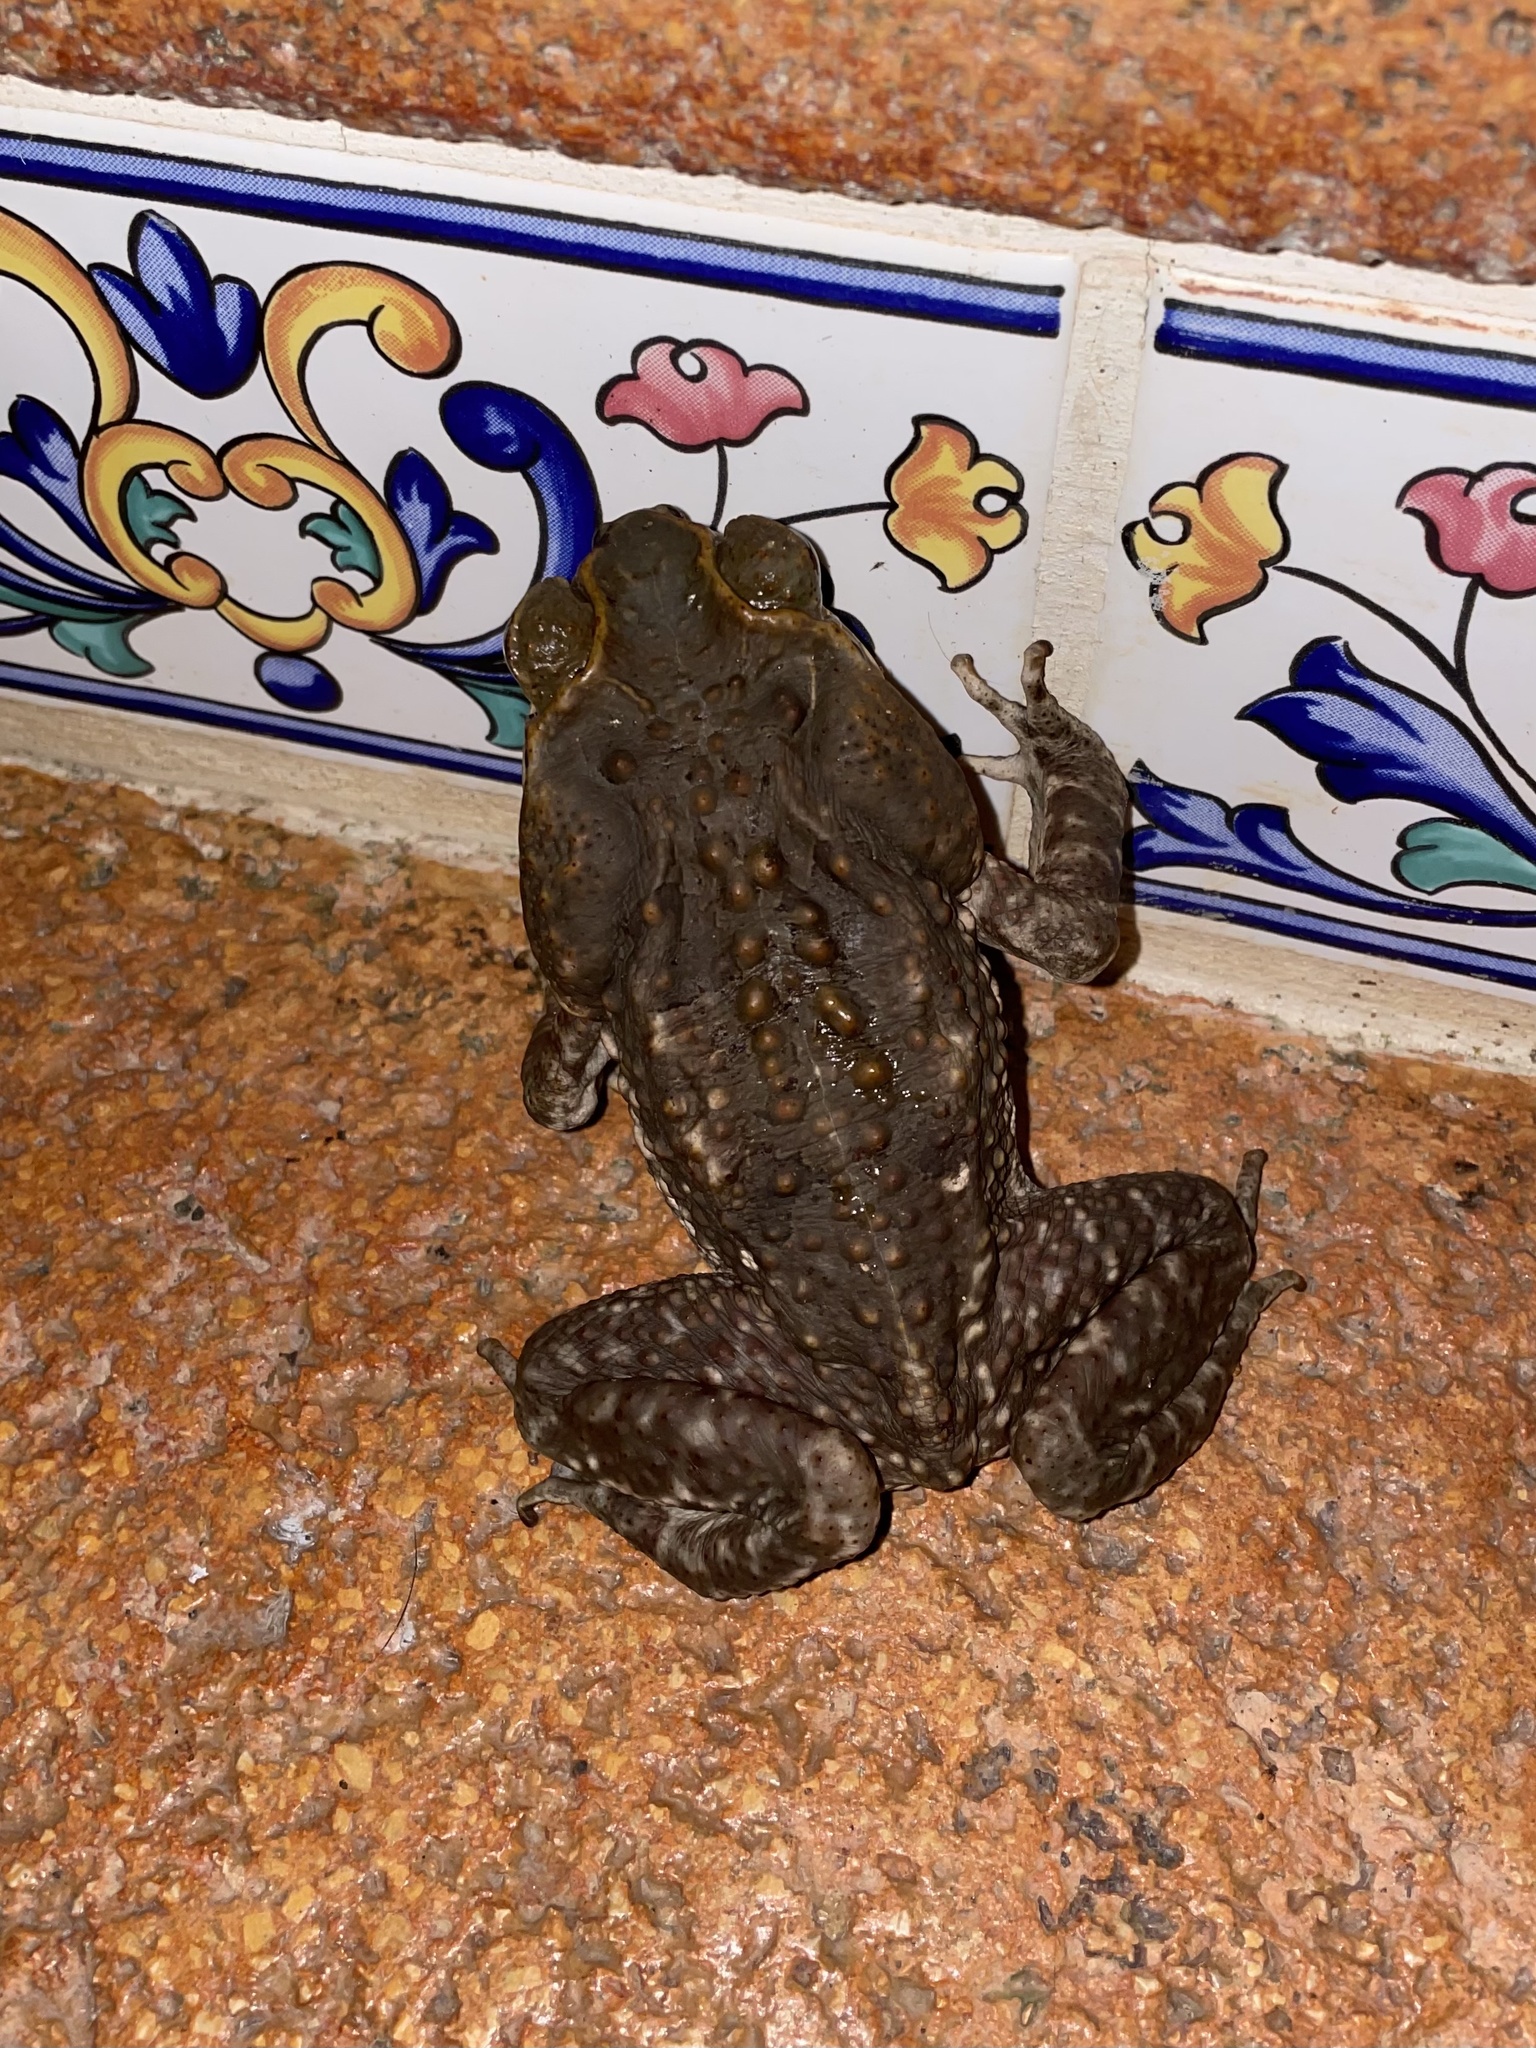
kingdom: Animalia
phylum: Chordata
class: Amphibia
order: Anura
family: Bufonidae
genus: Rhinella
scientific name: Rhinella horribilis
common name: Mesoamerican cane toad
